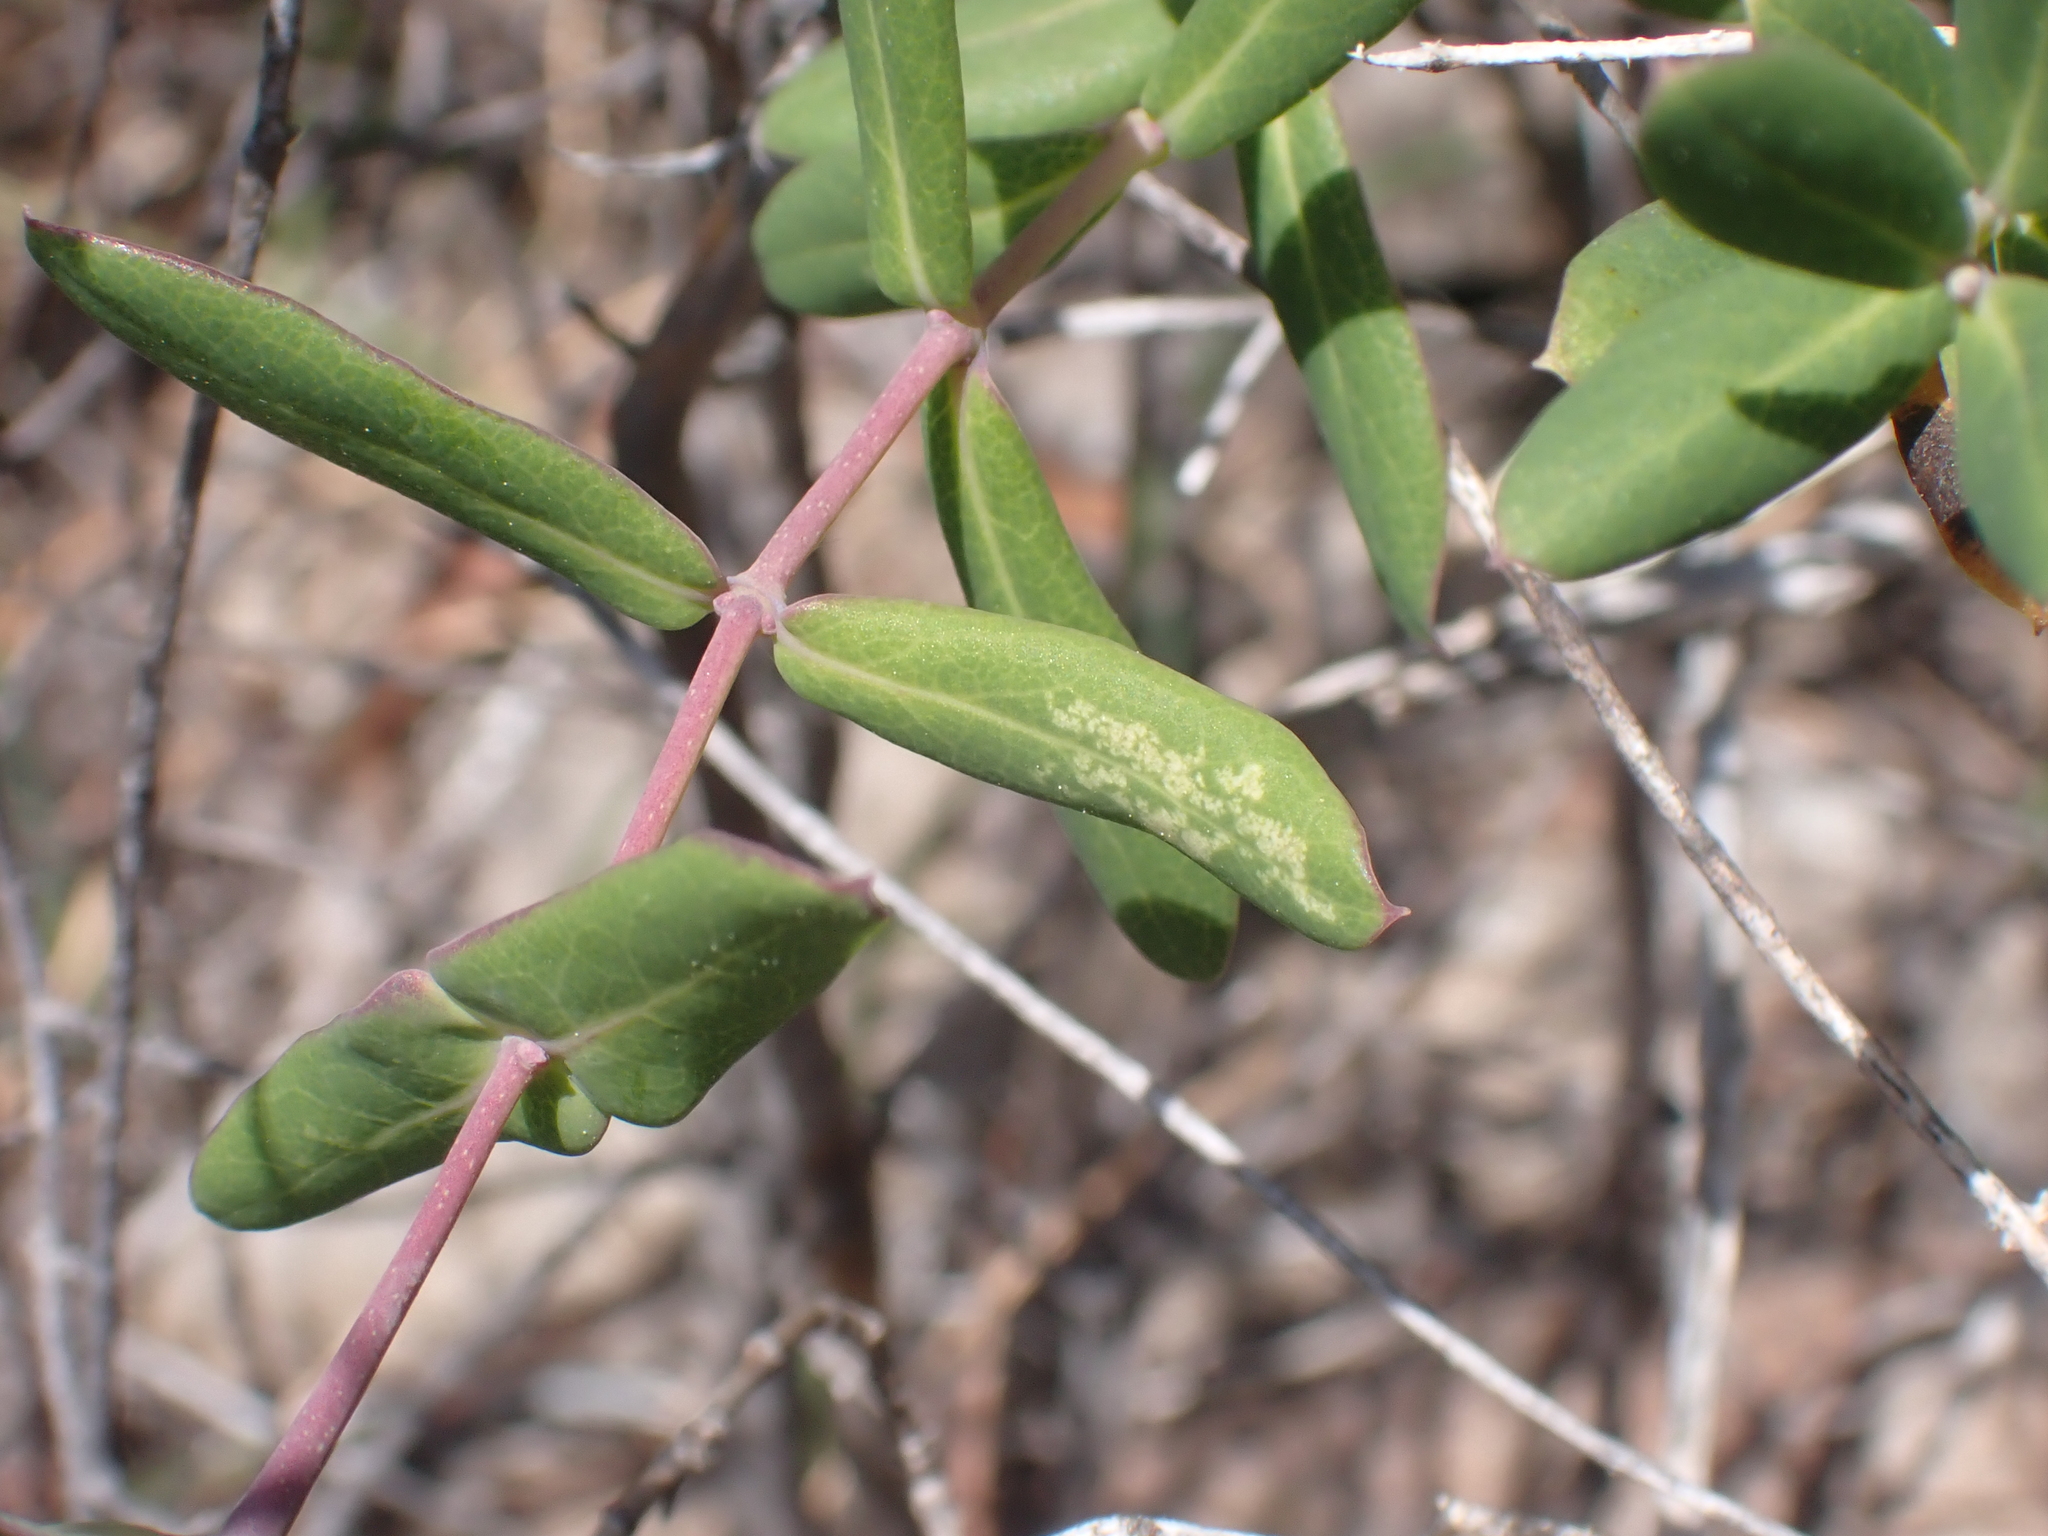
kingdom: Plantae
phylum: Tracheophyta
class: Magnoliopsida
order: Dipsacales
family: Caprifoliaceae
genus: Lonicera
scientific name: Lonicera implexa
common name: Minorca honeysuckle
